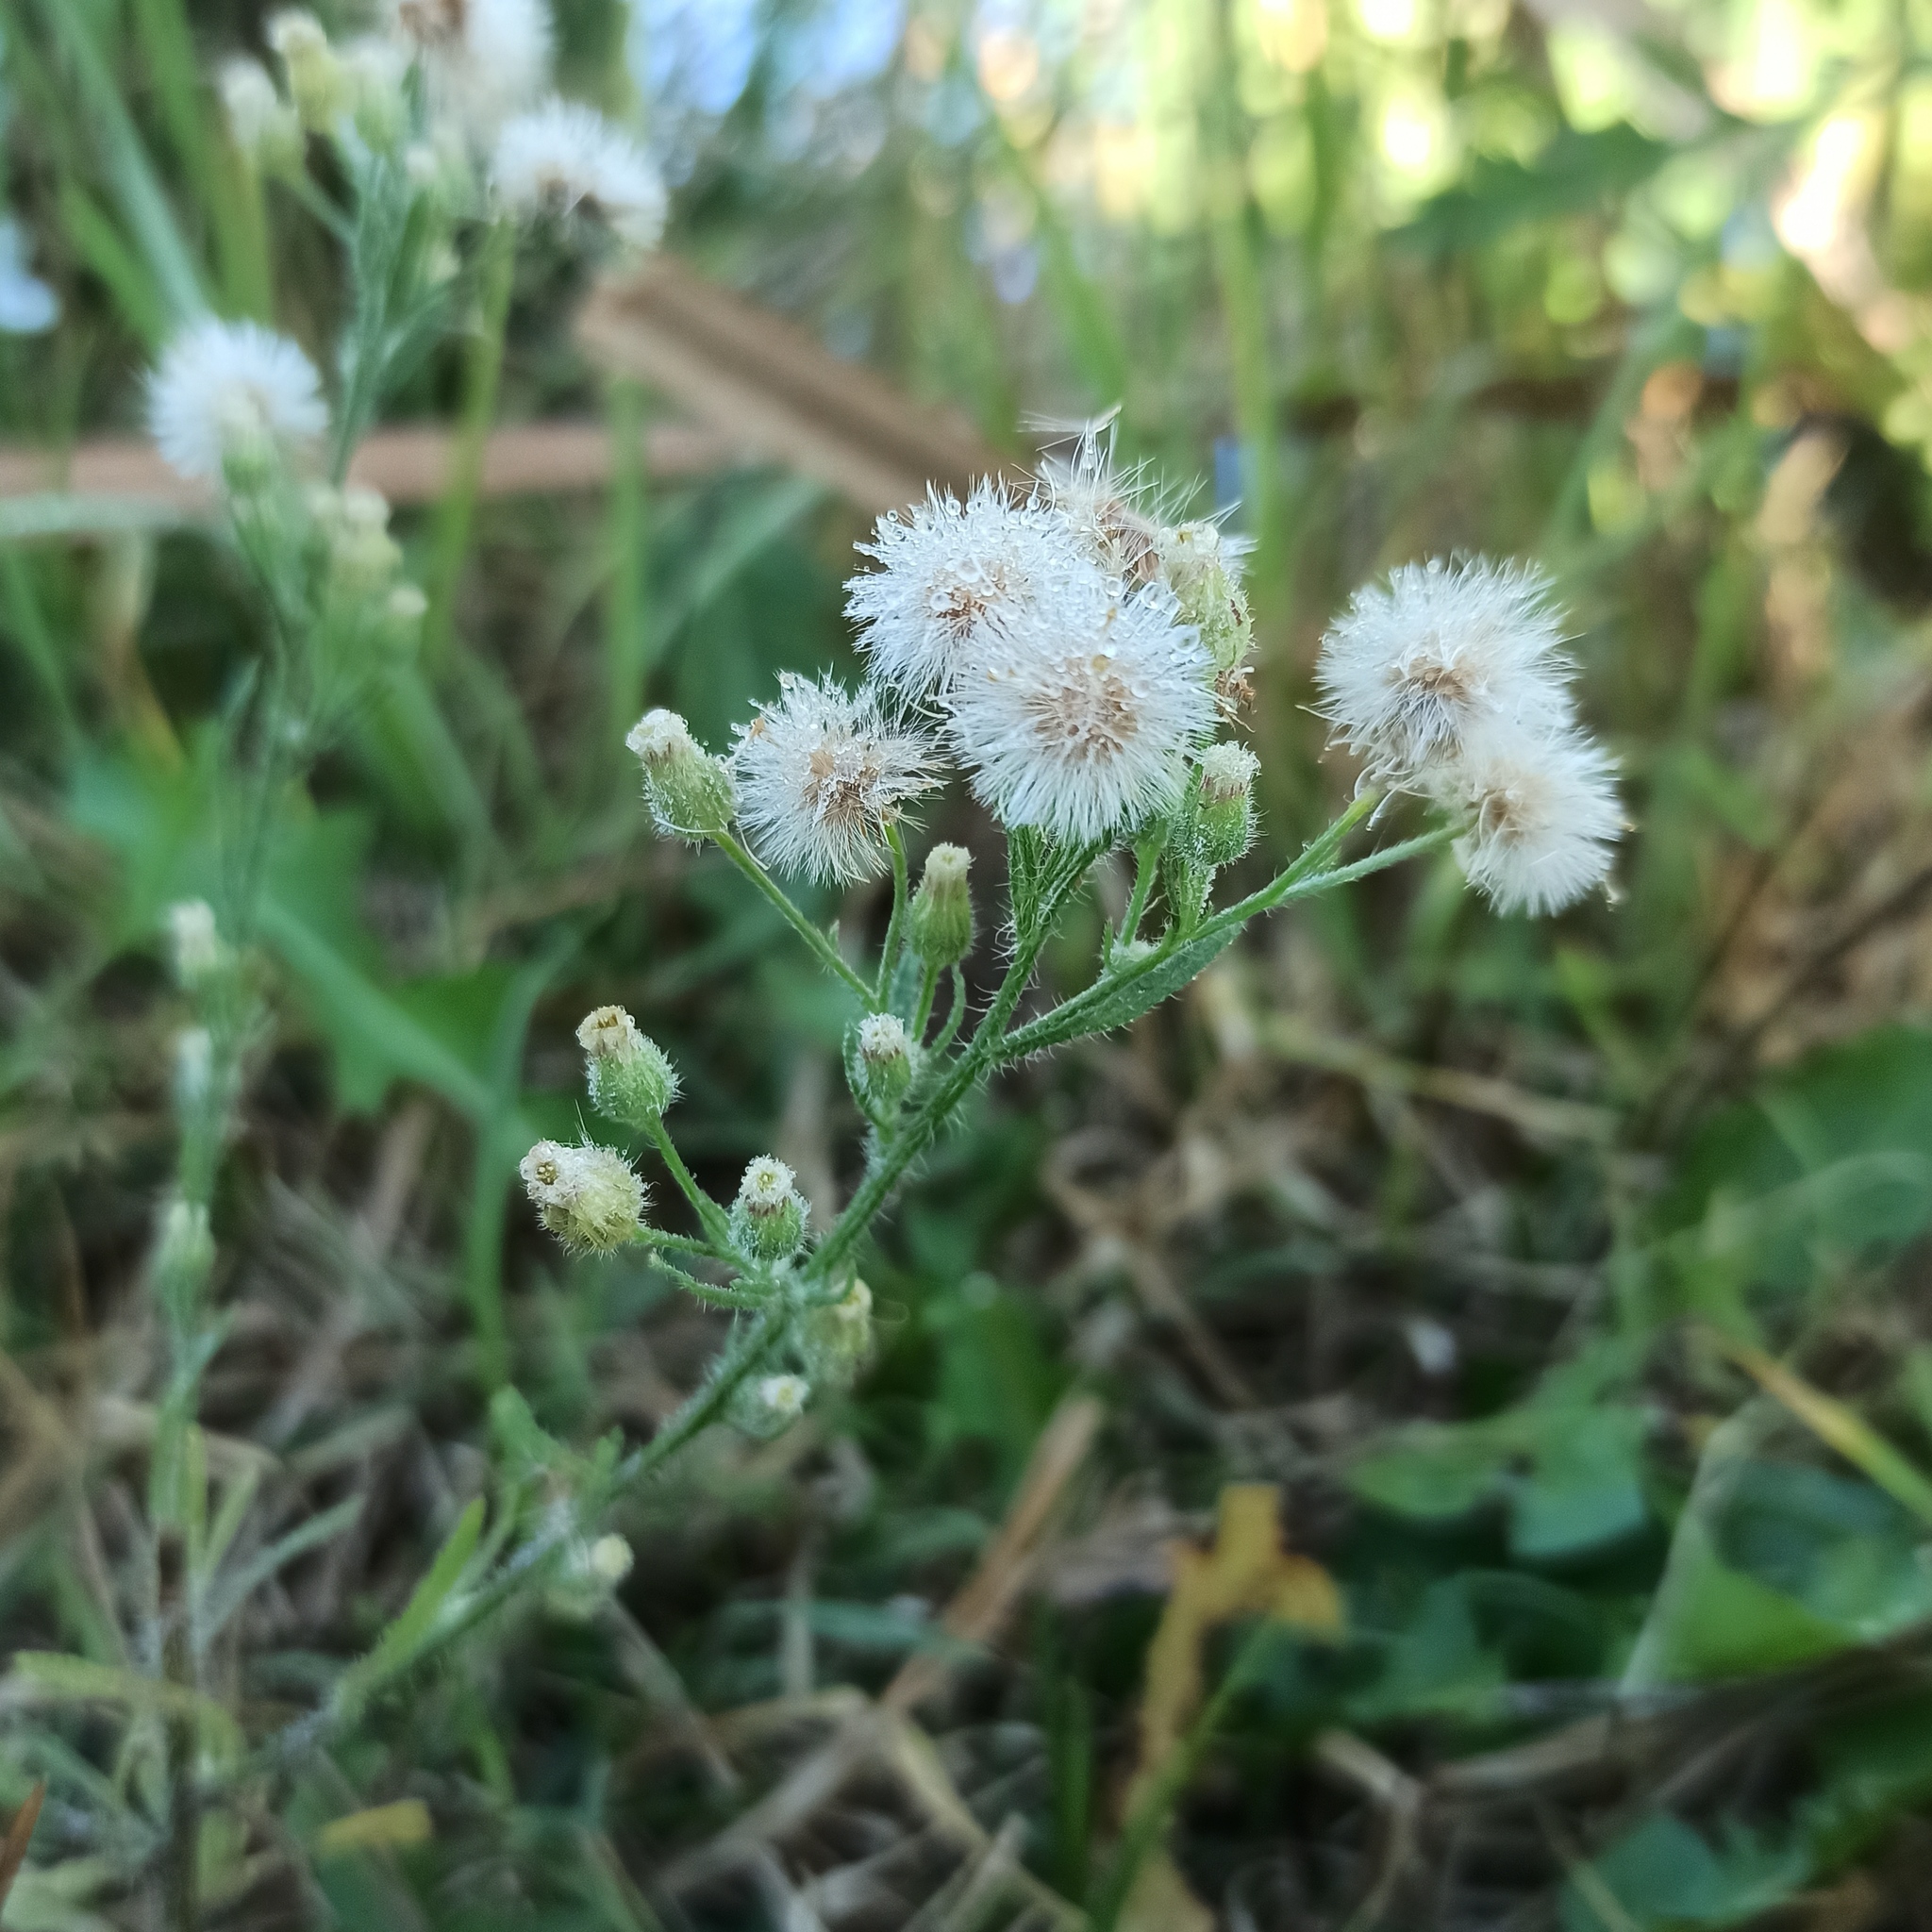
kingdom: Plantae
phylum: Tracheophyta
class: Magnoliopsida
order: Asterales
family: Asteraceae
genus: Erigeron
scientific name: Erigeron bonariensis
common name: Argentine fleabane
